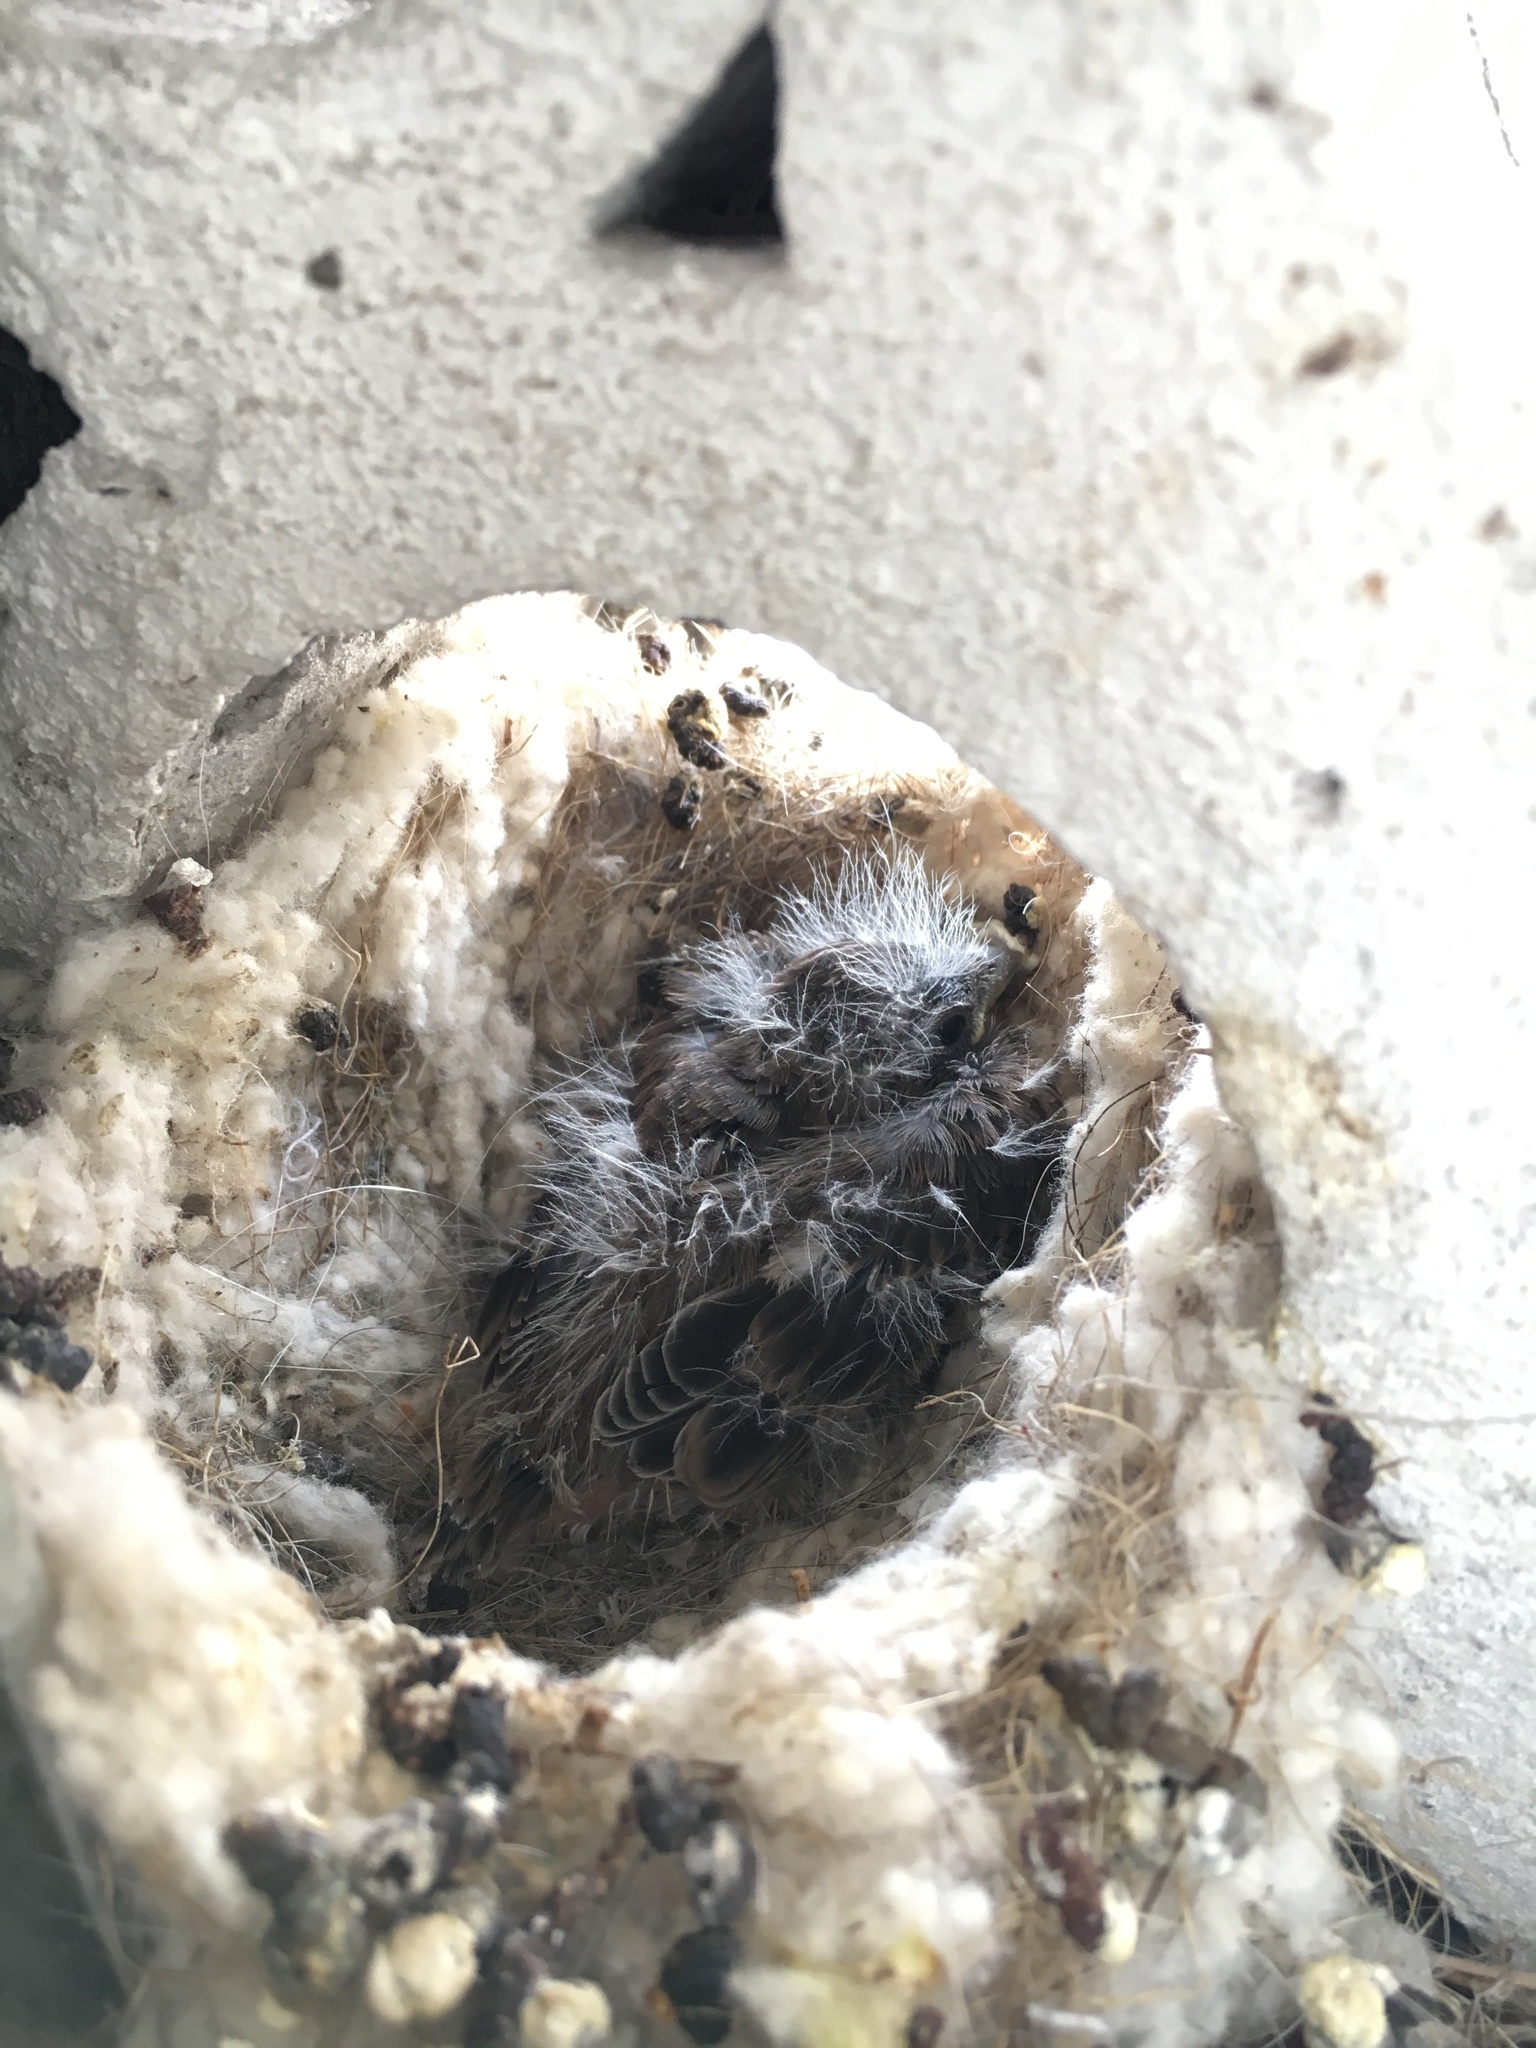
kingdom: Animalia
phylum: Chordata
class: Aves
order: Passeriformes
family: Fringillidae
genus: Haemorhous
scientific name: Haemorhous mexicanus
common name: House finch
